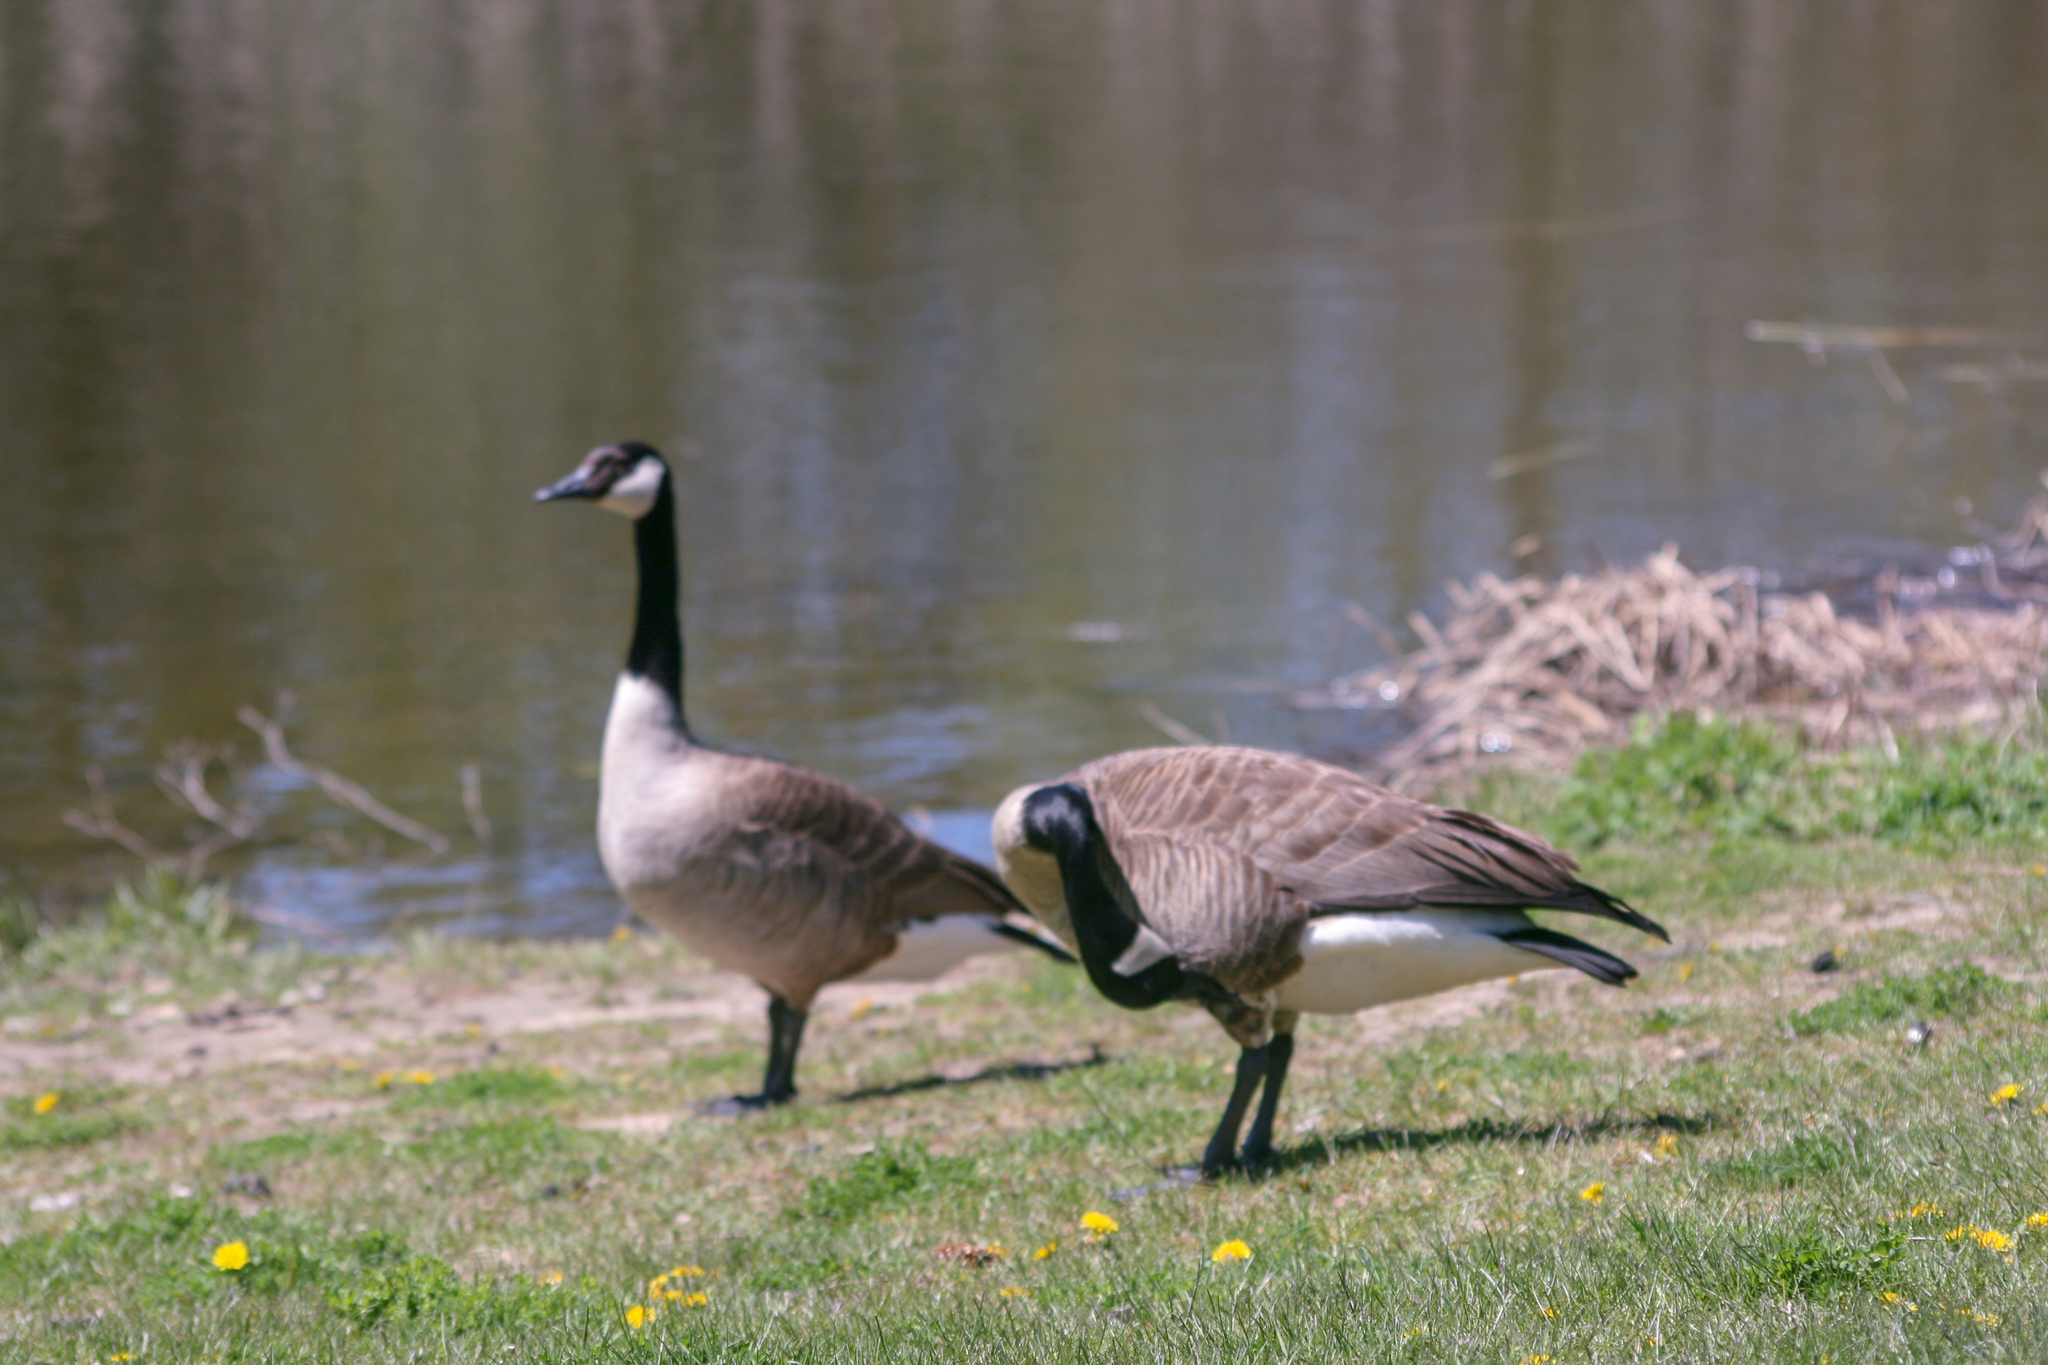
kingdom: Animalia
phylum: Chordata
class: Aves
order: Anseriformes
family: Anatidae
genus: Branta
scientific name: Branta canadensis
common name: Canada goose
